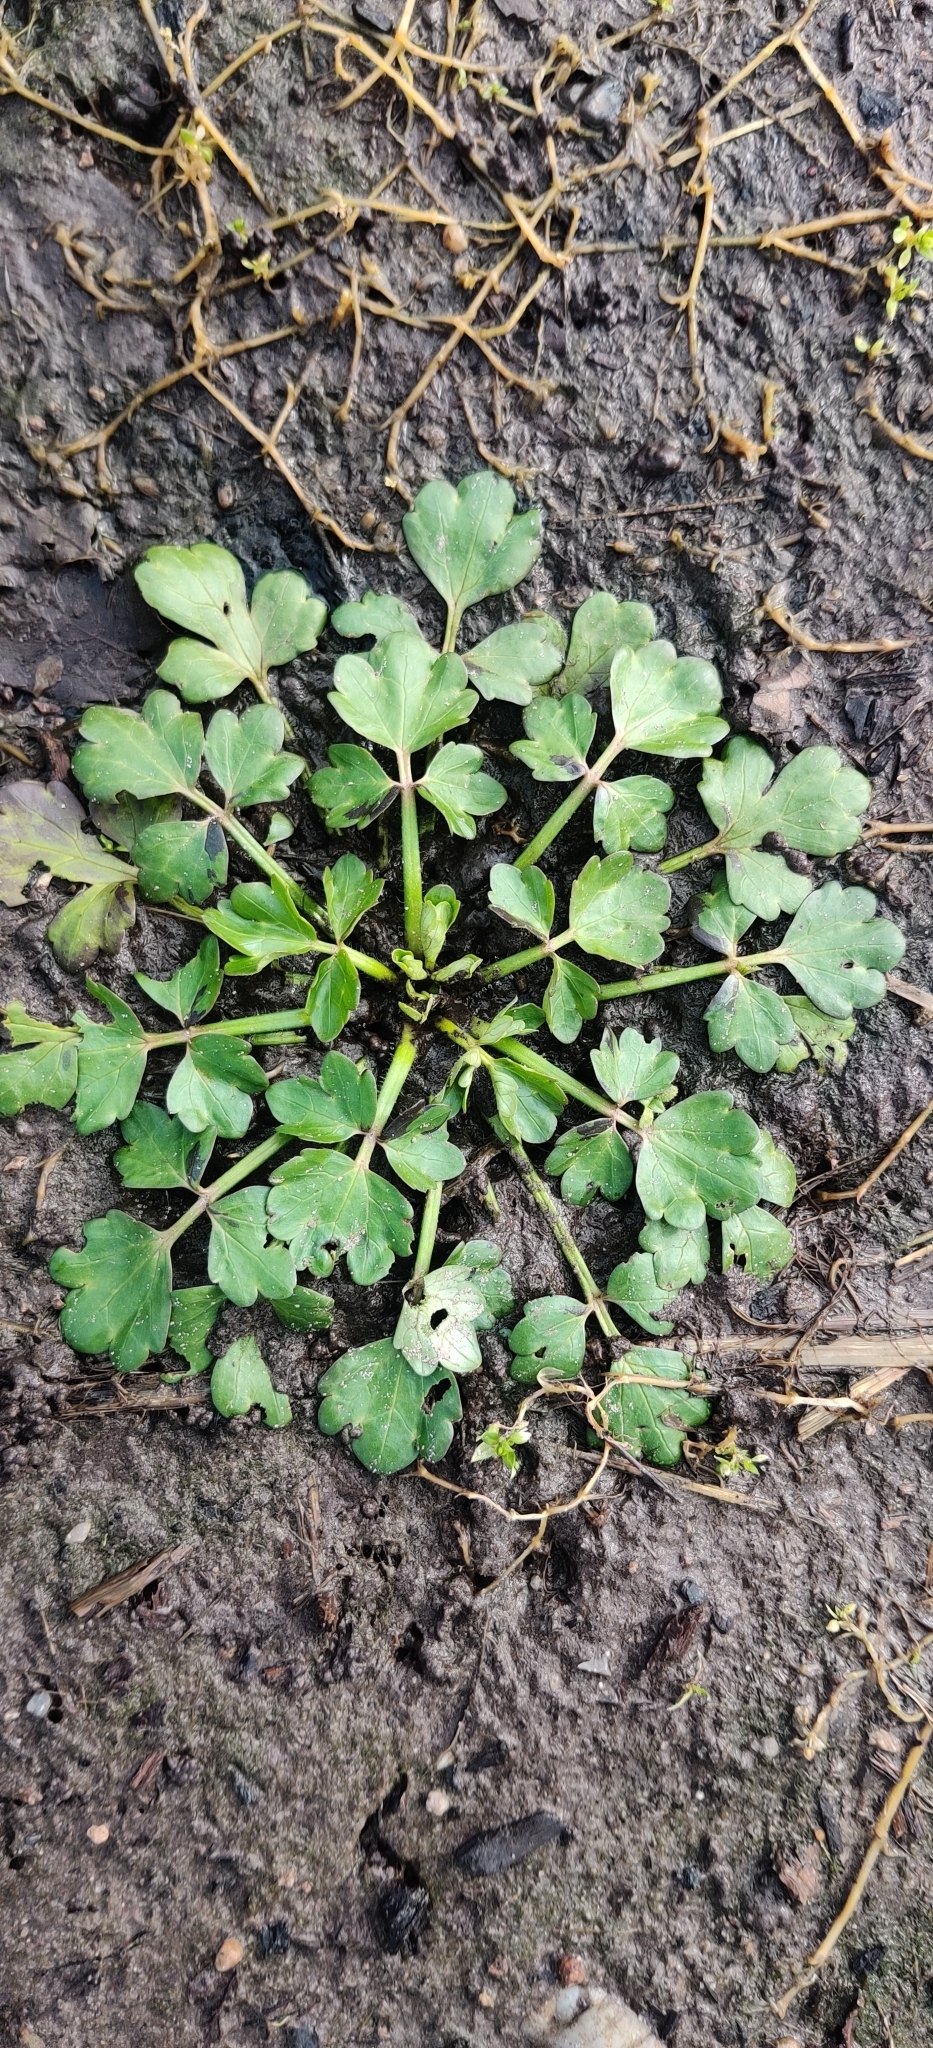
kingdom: Plantae
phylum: Tracheophyta
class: Magnoliopsida
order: Ranunculales
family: Ranunculaceae
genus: Ranunculus
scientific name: Ranunculus sardous
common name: Hairy buttercup
